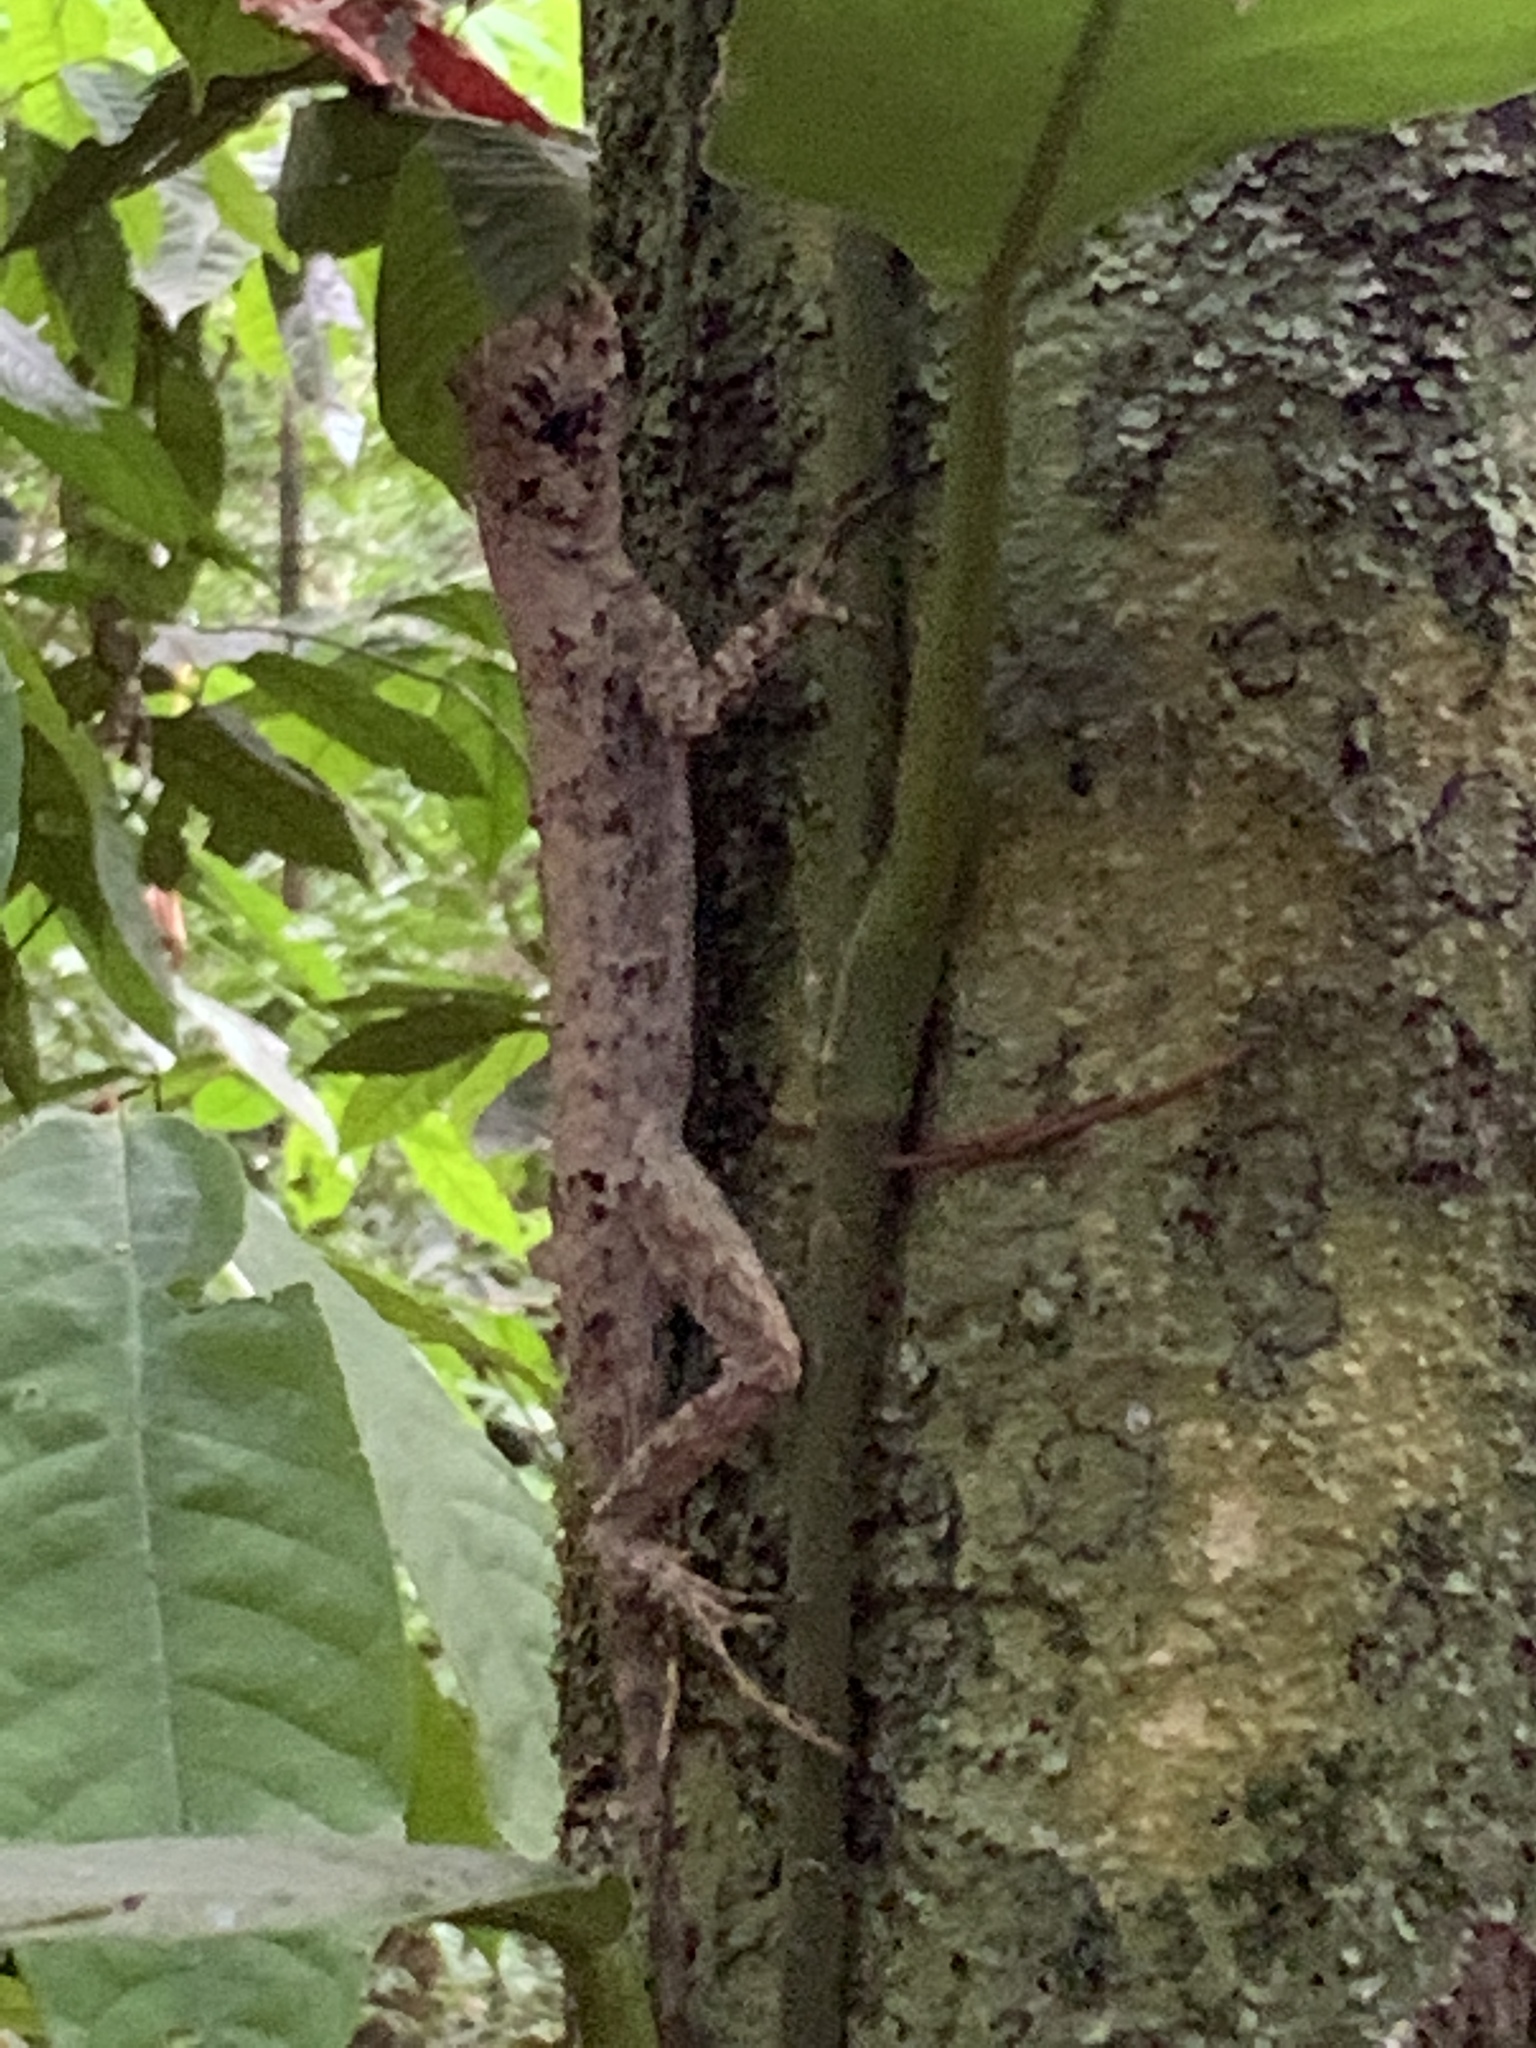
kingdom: Animalia
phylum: Chordata
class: Squamata
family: Dactyloidae
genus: Anolis
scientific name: Anolis capito
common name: Bighead anole
